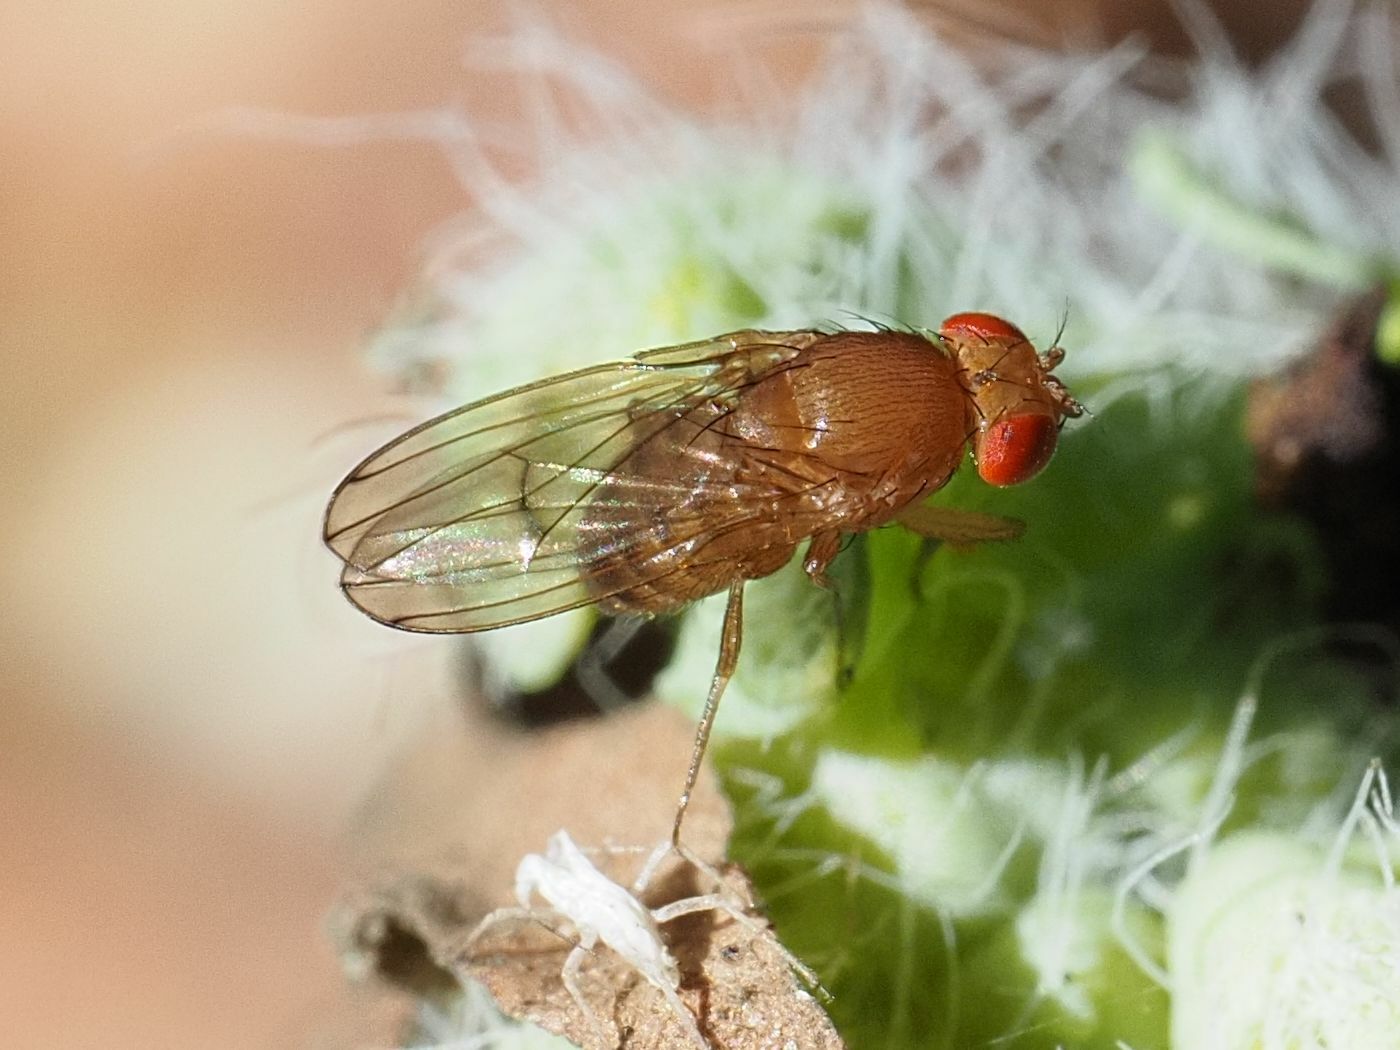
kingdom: Animalia
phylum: Arthropoda
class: Insecta
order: Diptera
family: Drosophilidae
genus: Drosophila
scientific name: Drosophila immigrans
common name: Pomace fly
